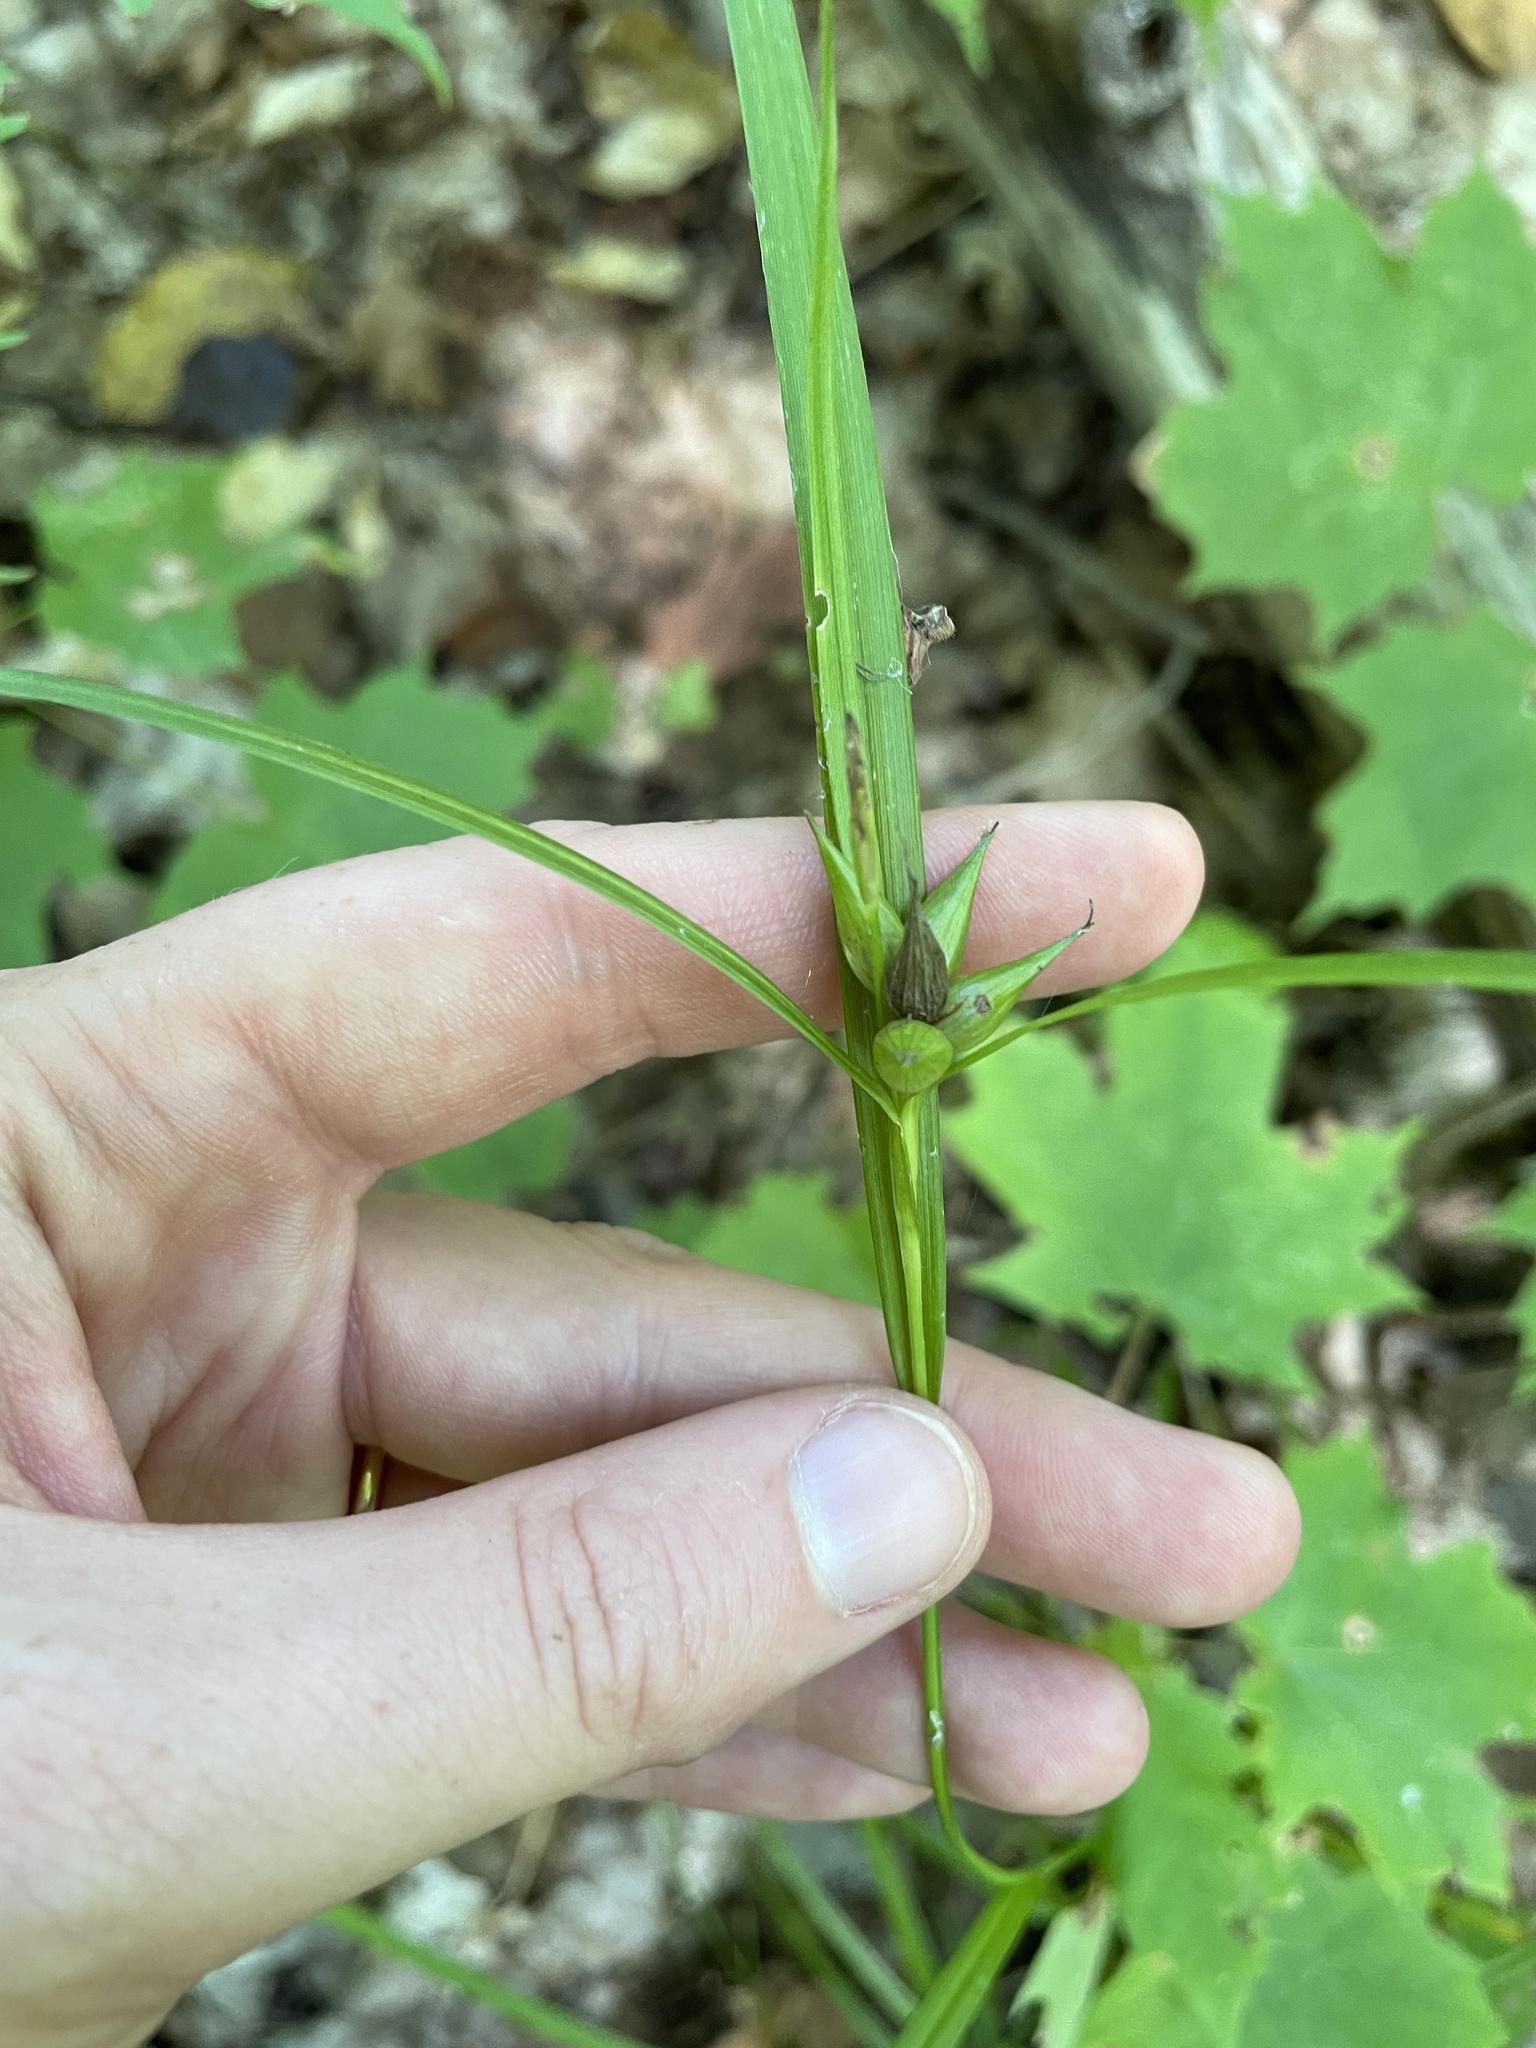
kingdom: Plantae
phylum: Tracheophyta
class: Liliopsida
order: Poales
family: Cyperaceae
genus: Carex
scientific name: Carex intumescens
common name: Greater bladder sedge
